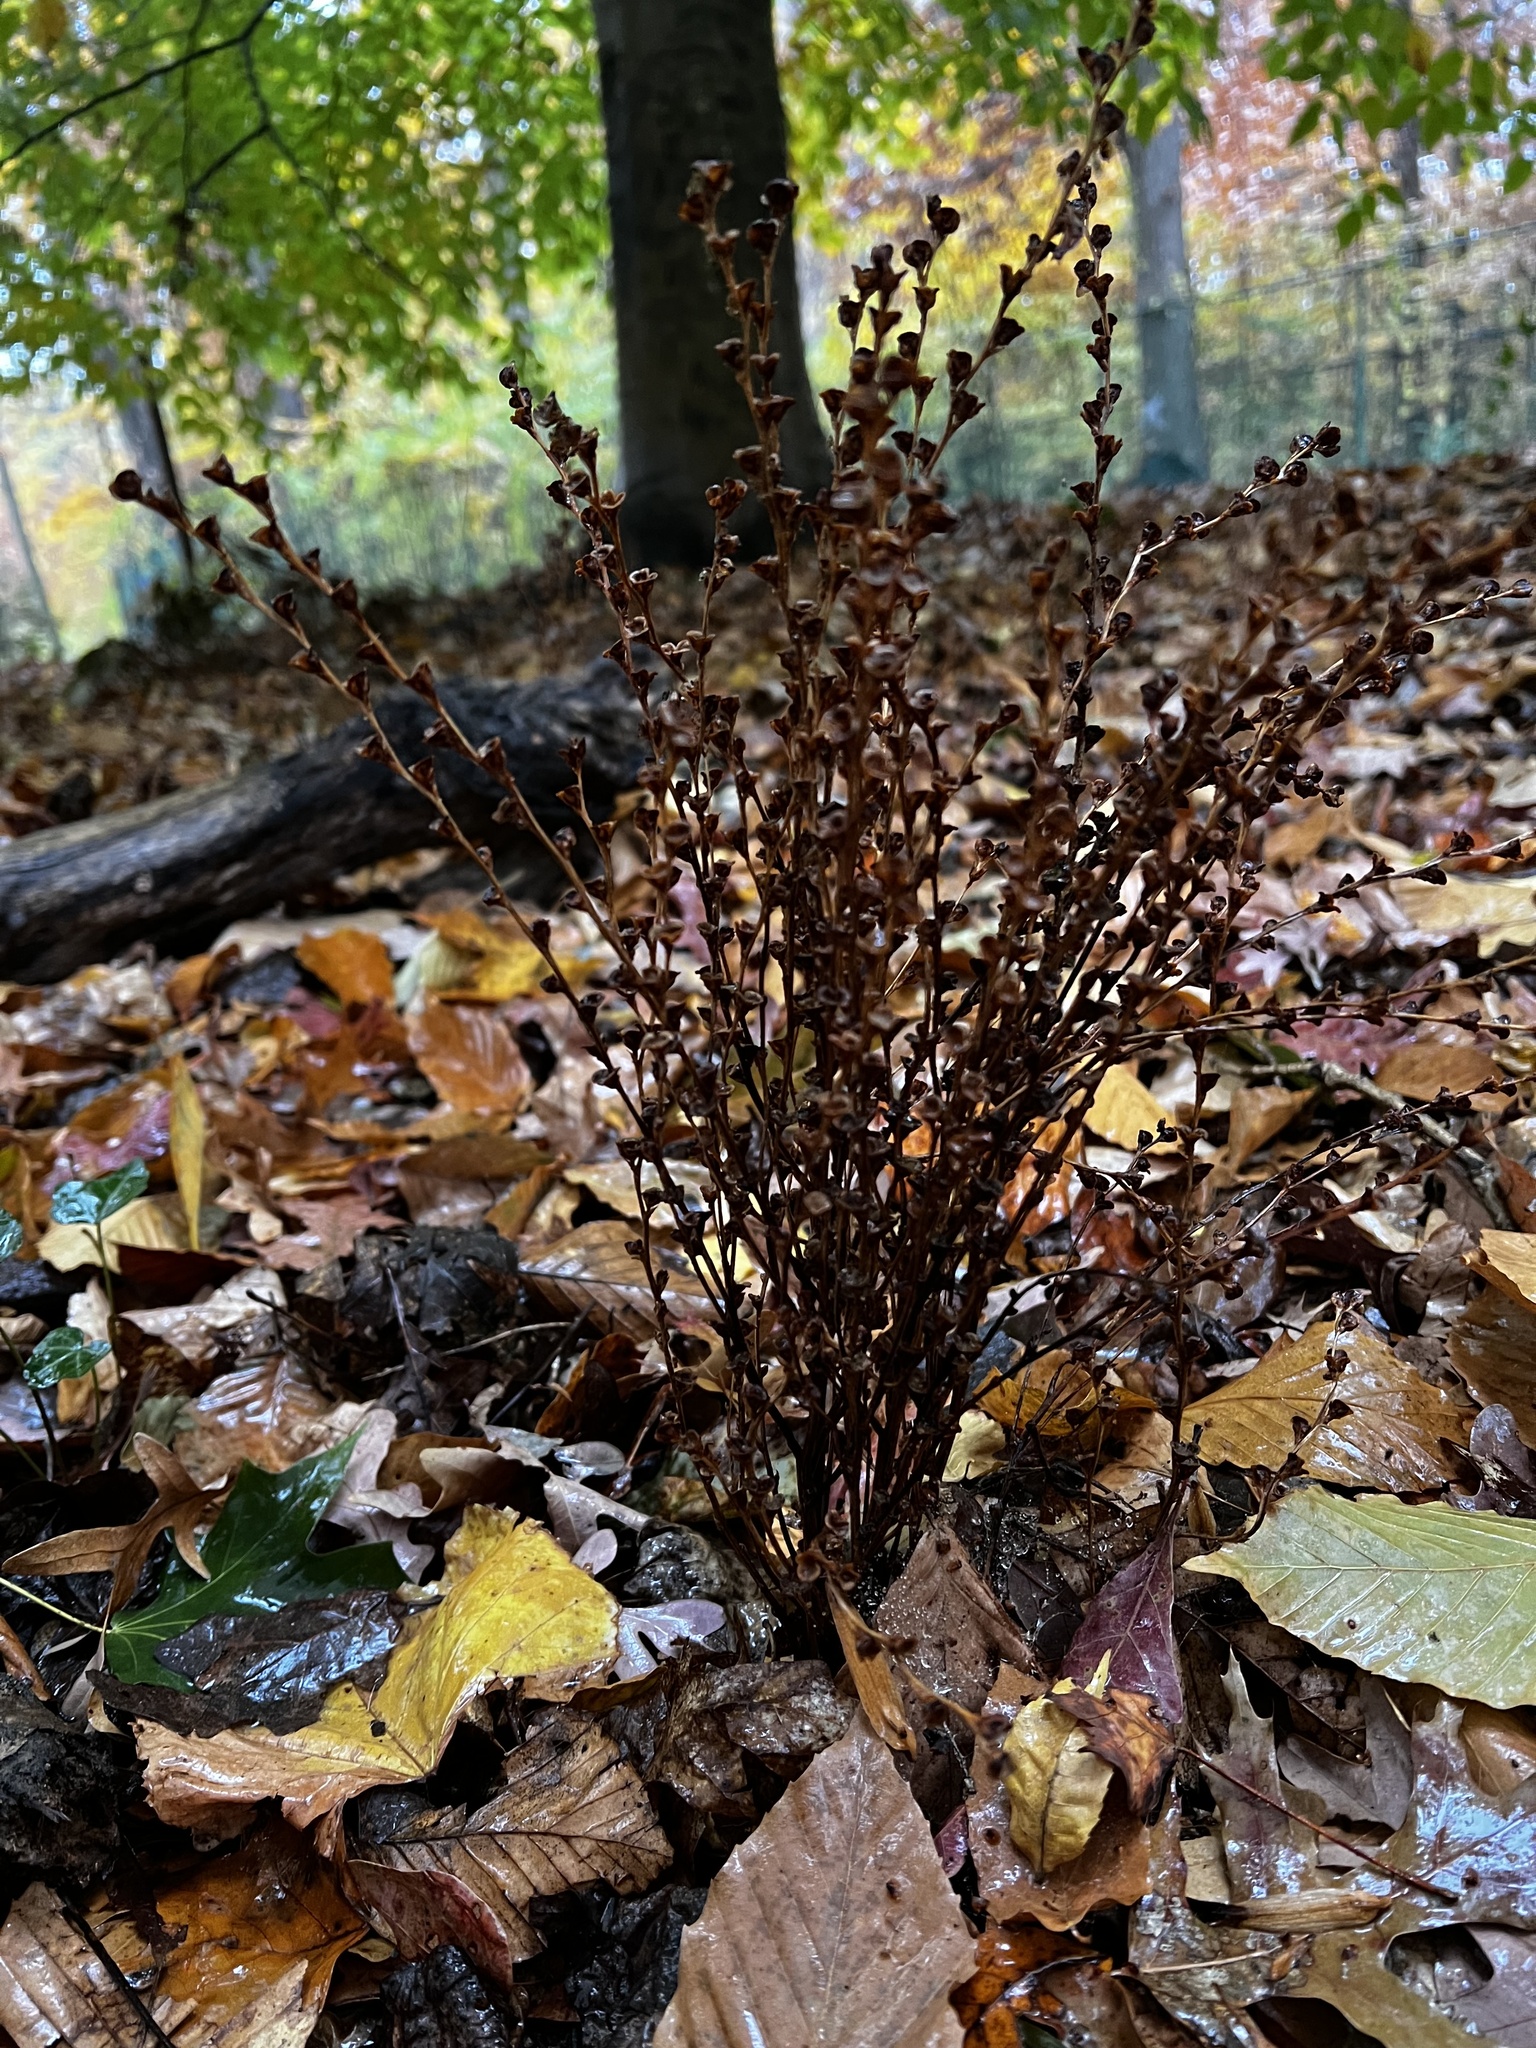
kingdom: Plantae
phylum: Tracheophyta
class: Magnoliopsida
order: Lamiales
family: Orobanchaceae
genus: Epifagus
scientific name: Epifagus virginiana
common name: Beechdrops
